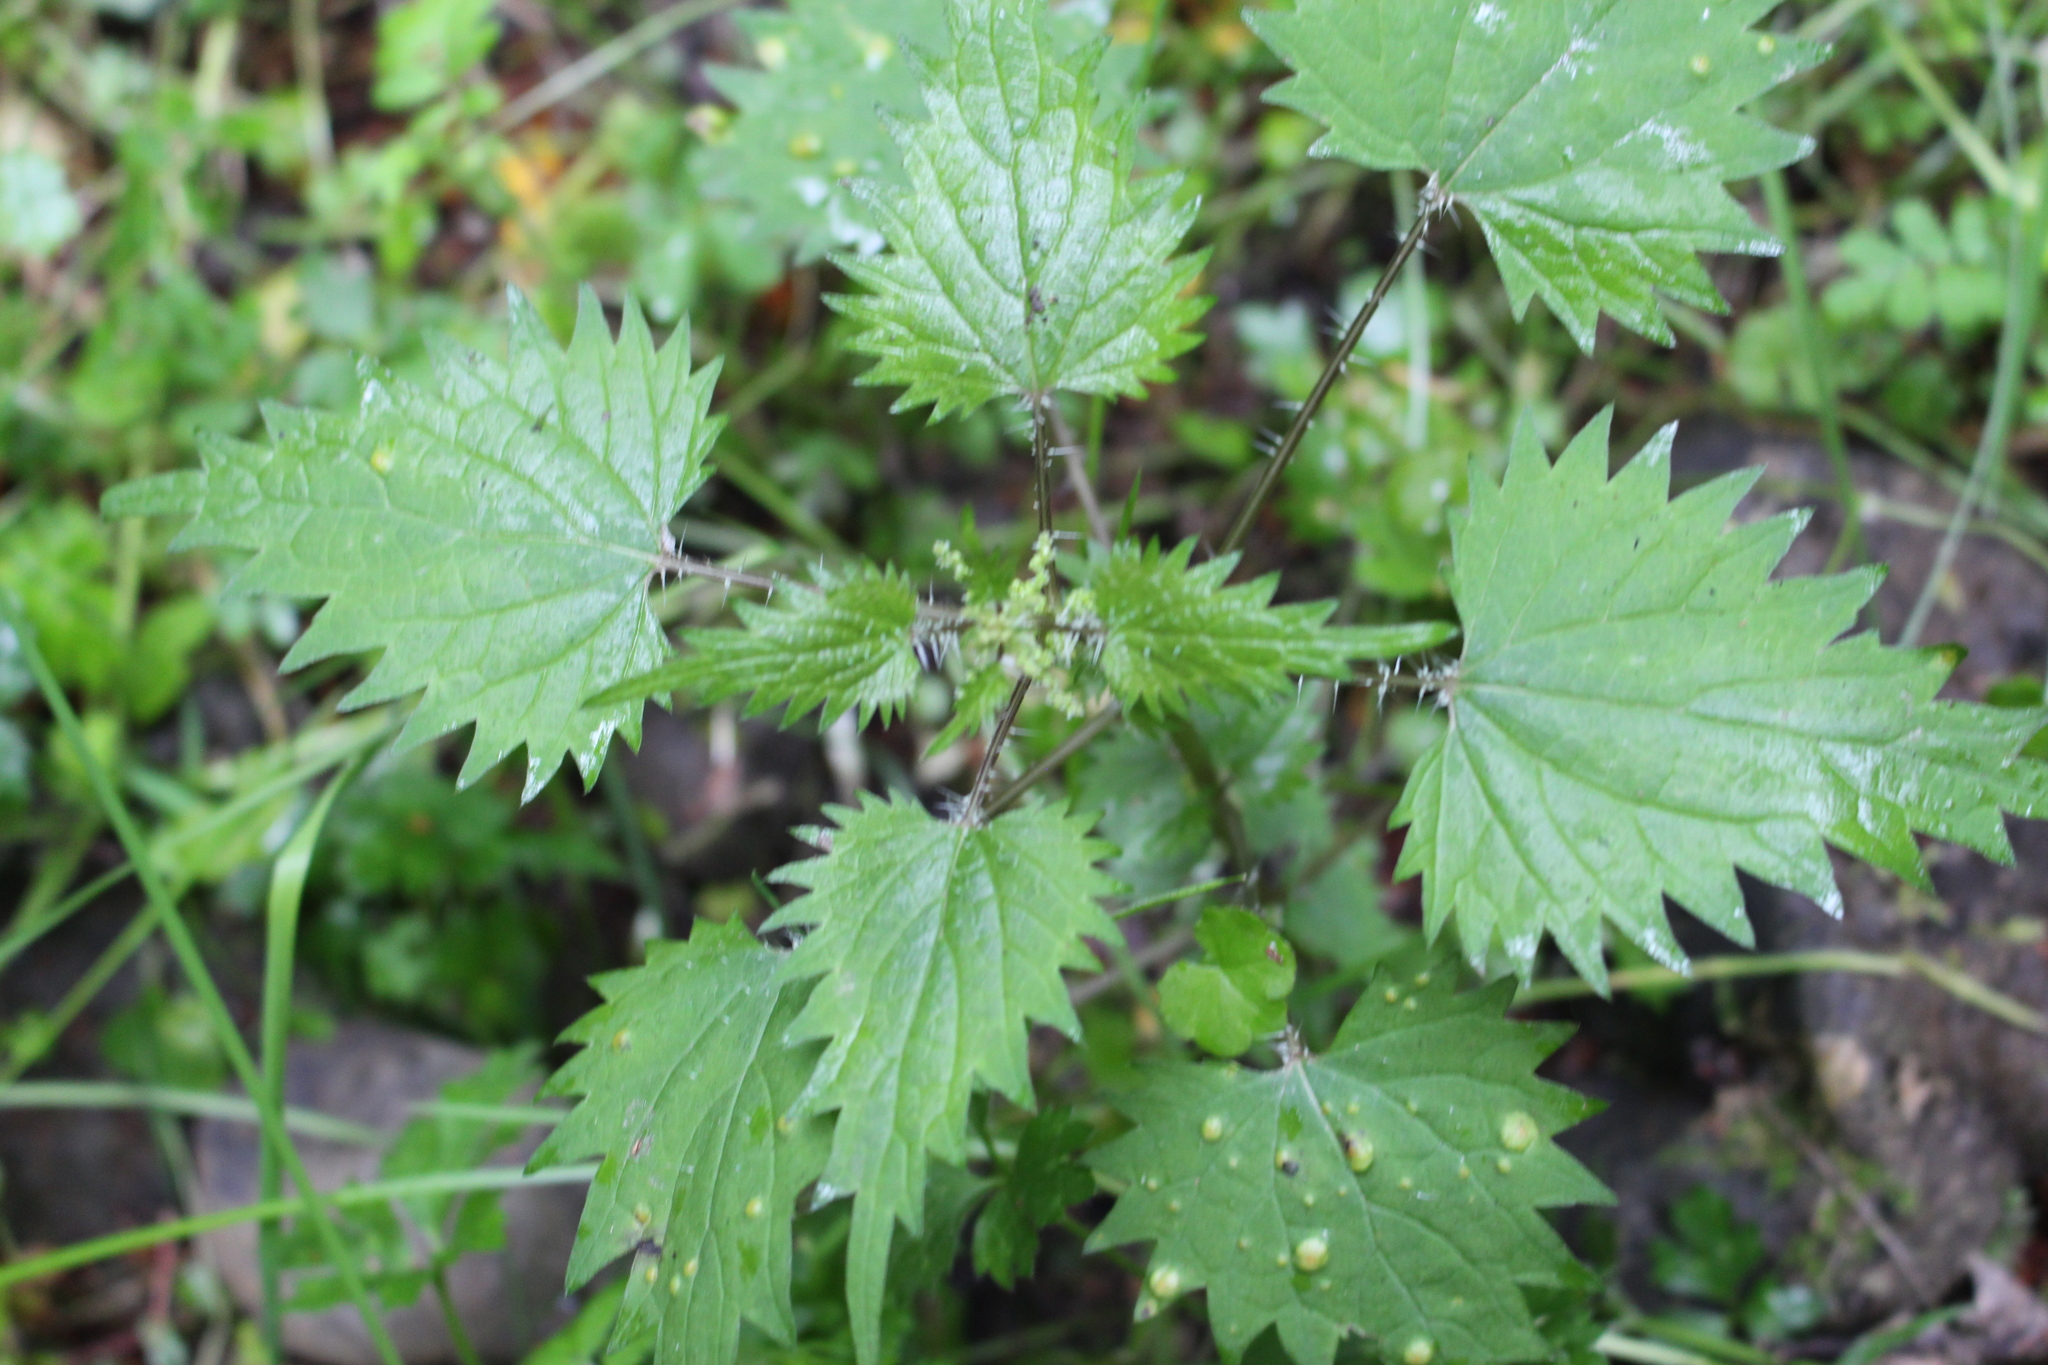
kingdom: Plantae
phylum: Tracheophyta
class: Magnoliopsida
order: Rosales
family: Urticaceae
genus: Urtica
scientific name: Urtica sykesii
